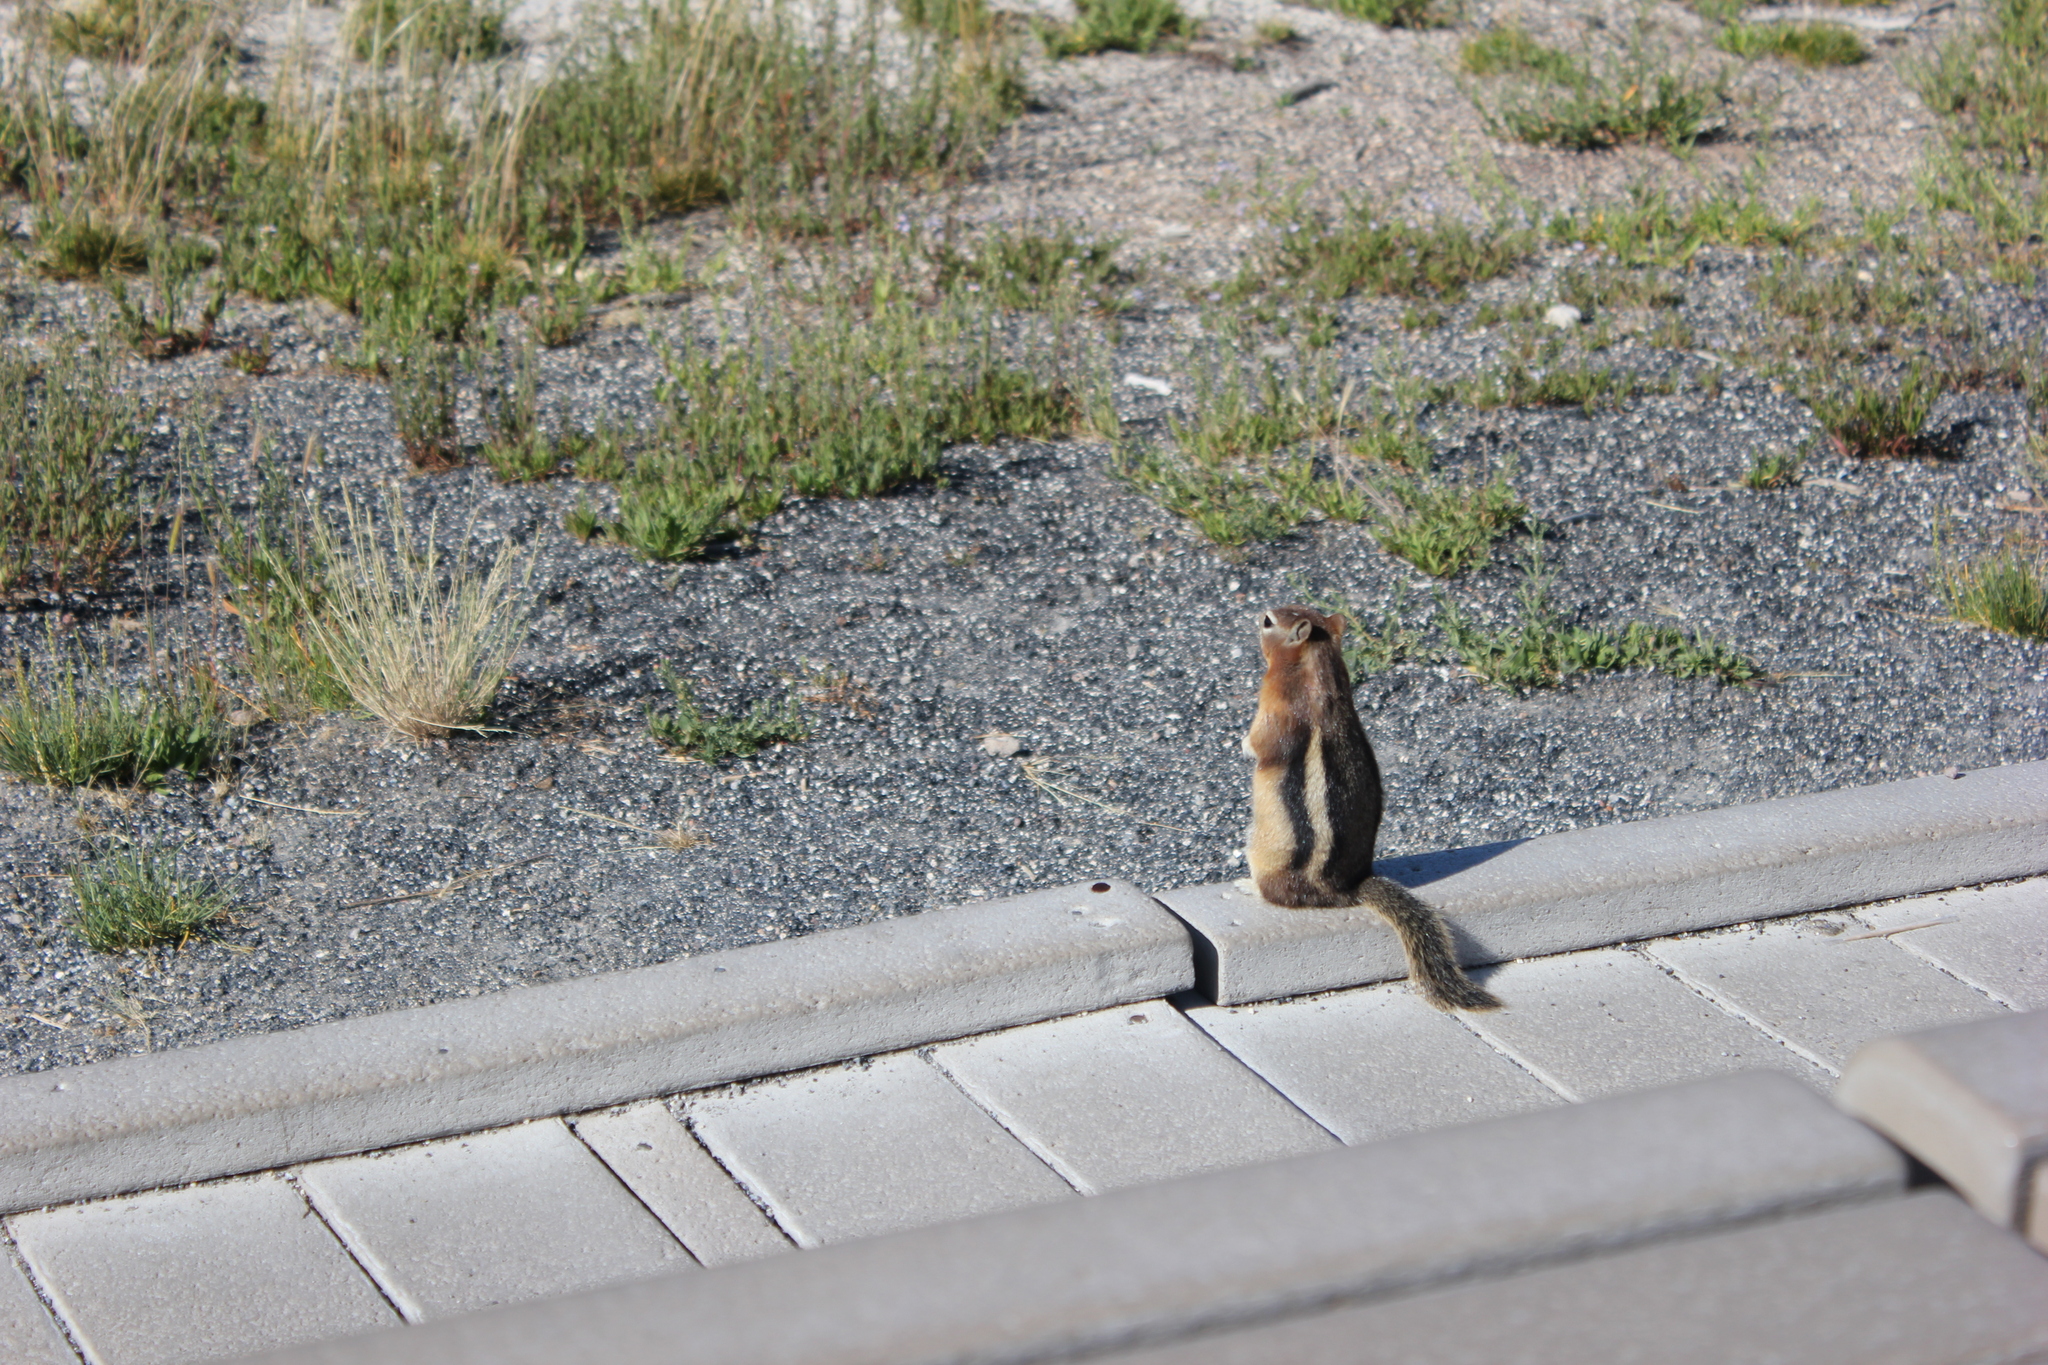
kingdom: Animalia
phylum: Chordata
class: Mammalia
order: Rodentia
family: Sciuridae
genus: Callospermophilus
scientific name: Callospermophilus lateralis
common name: Golden-mantled ground squirrel
